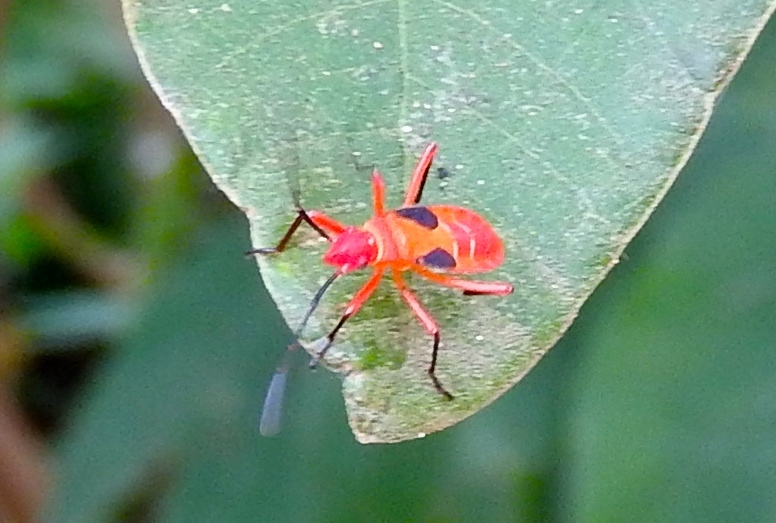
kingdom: Animalia
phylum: Arthropoda
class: Insecta
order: Hemiptera
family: Pyrrhocoridae
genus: Dysdercus
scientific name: Dysdercus
